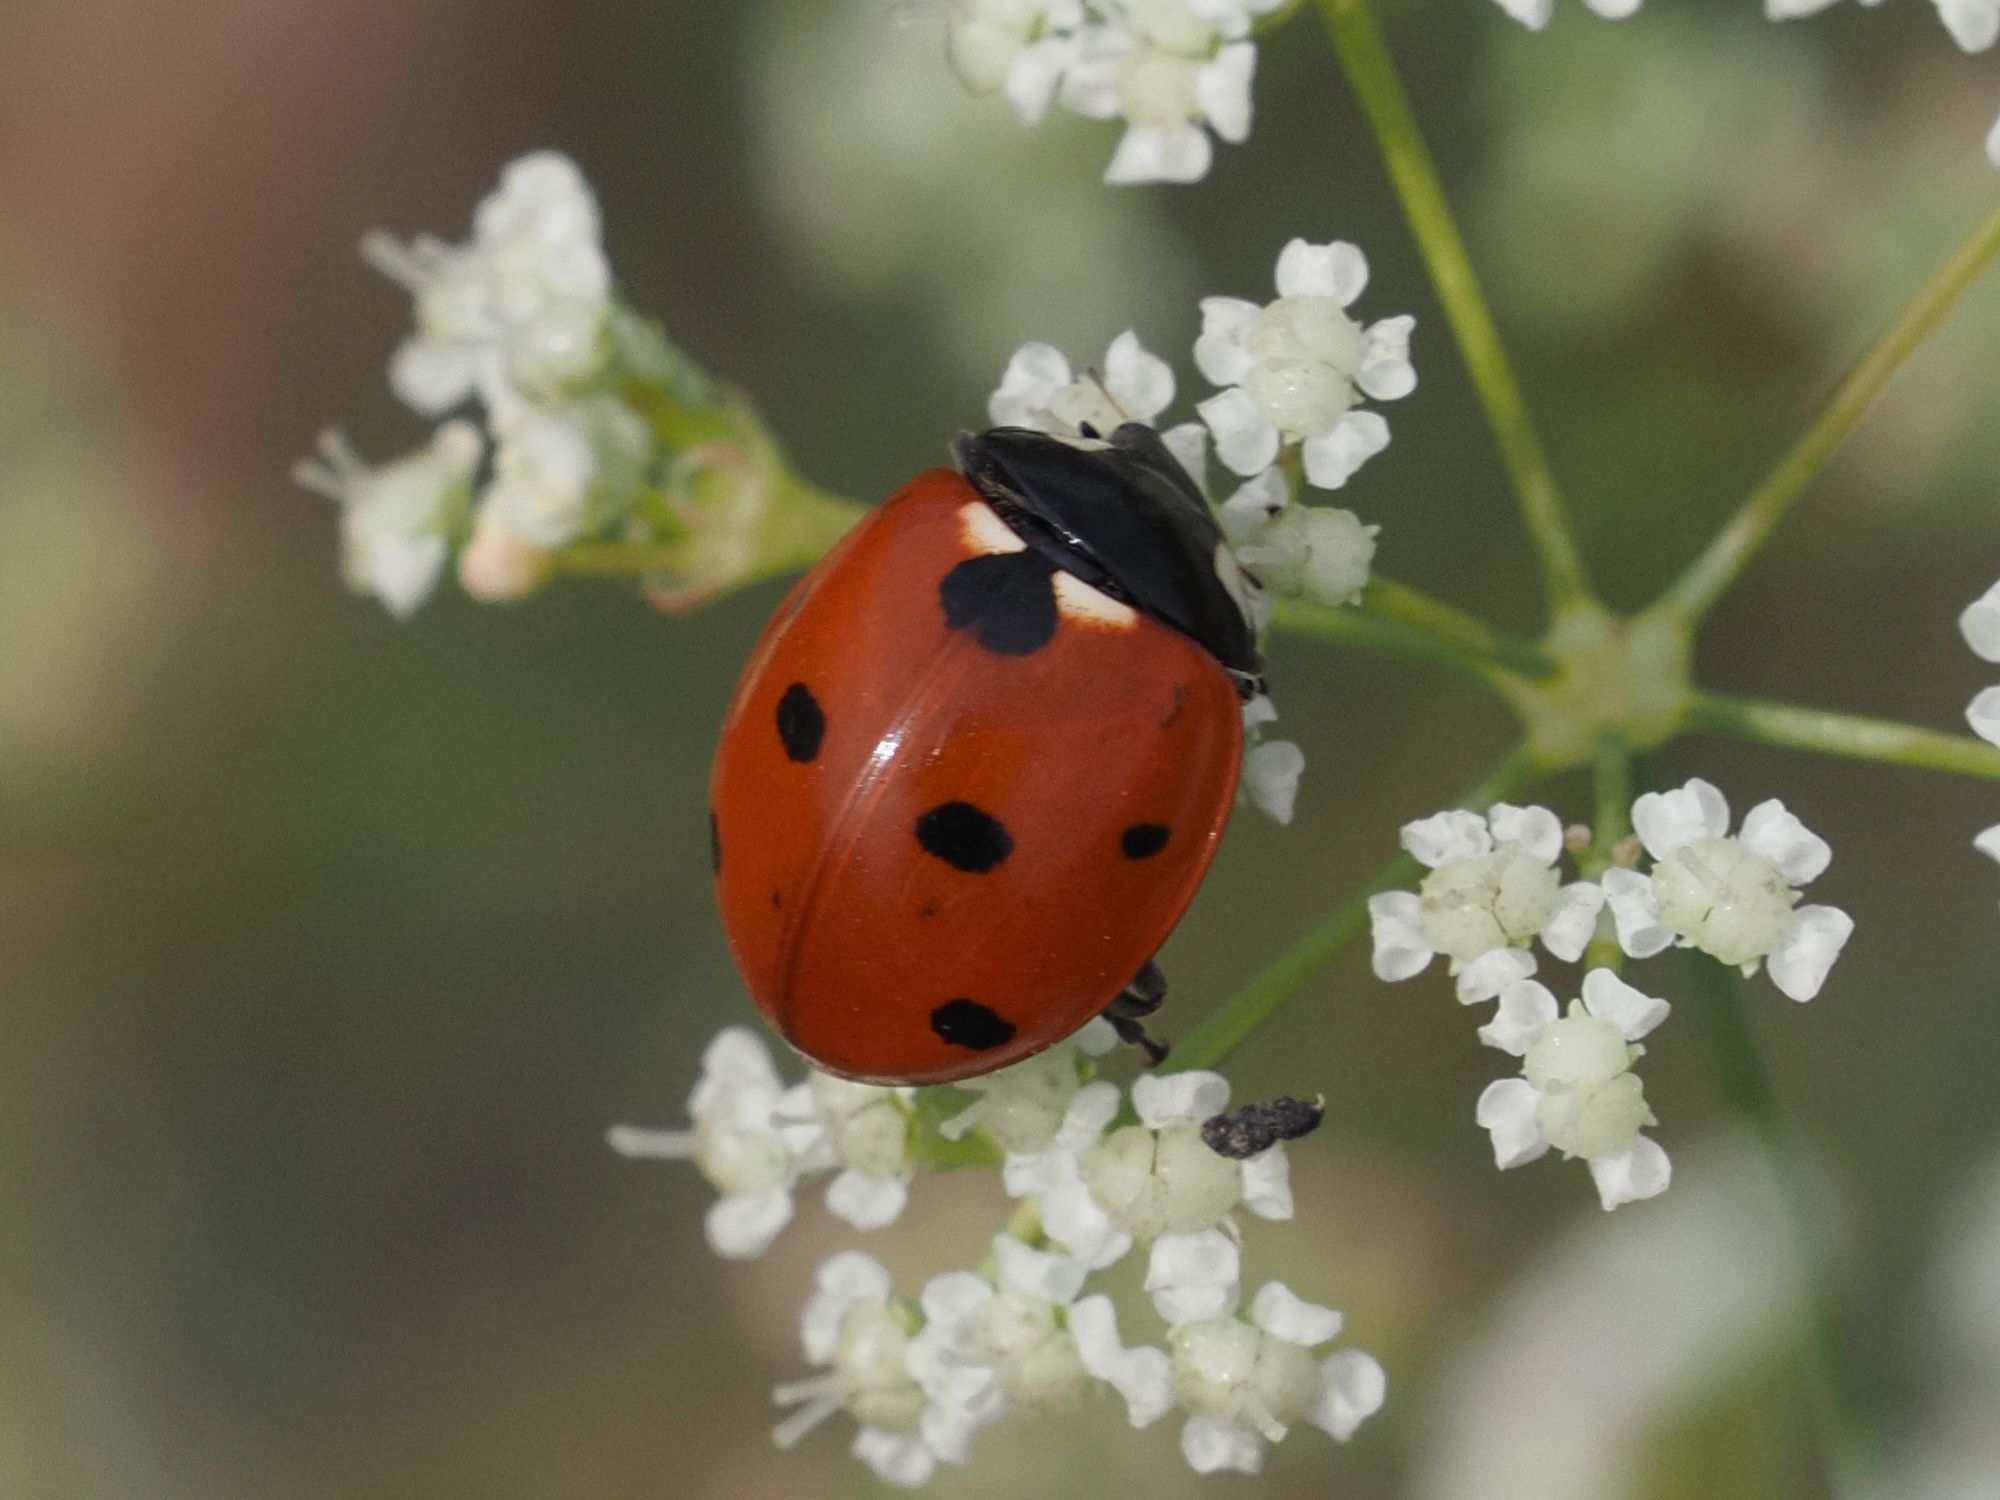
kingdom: Animalia
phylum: Arthropoda
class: Insecta
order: Coleoptera
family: Coccinellidae
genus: Coccinella
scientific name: Coccinella septempunctata
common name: Sevenspotted lady beetle
